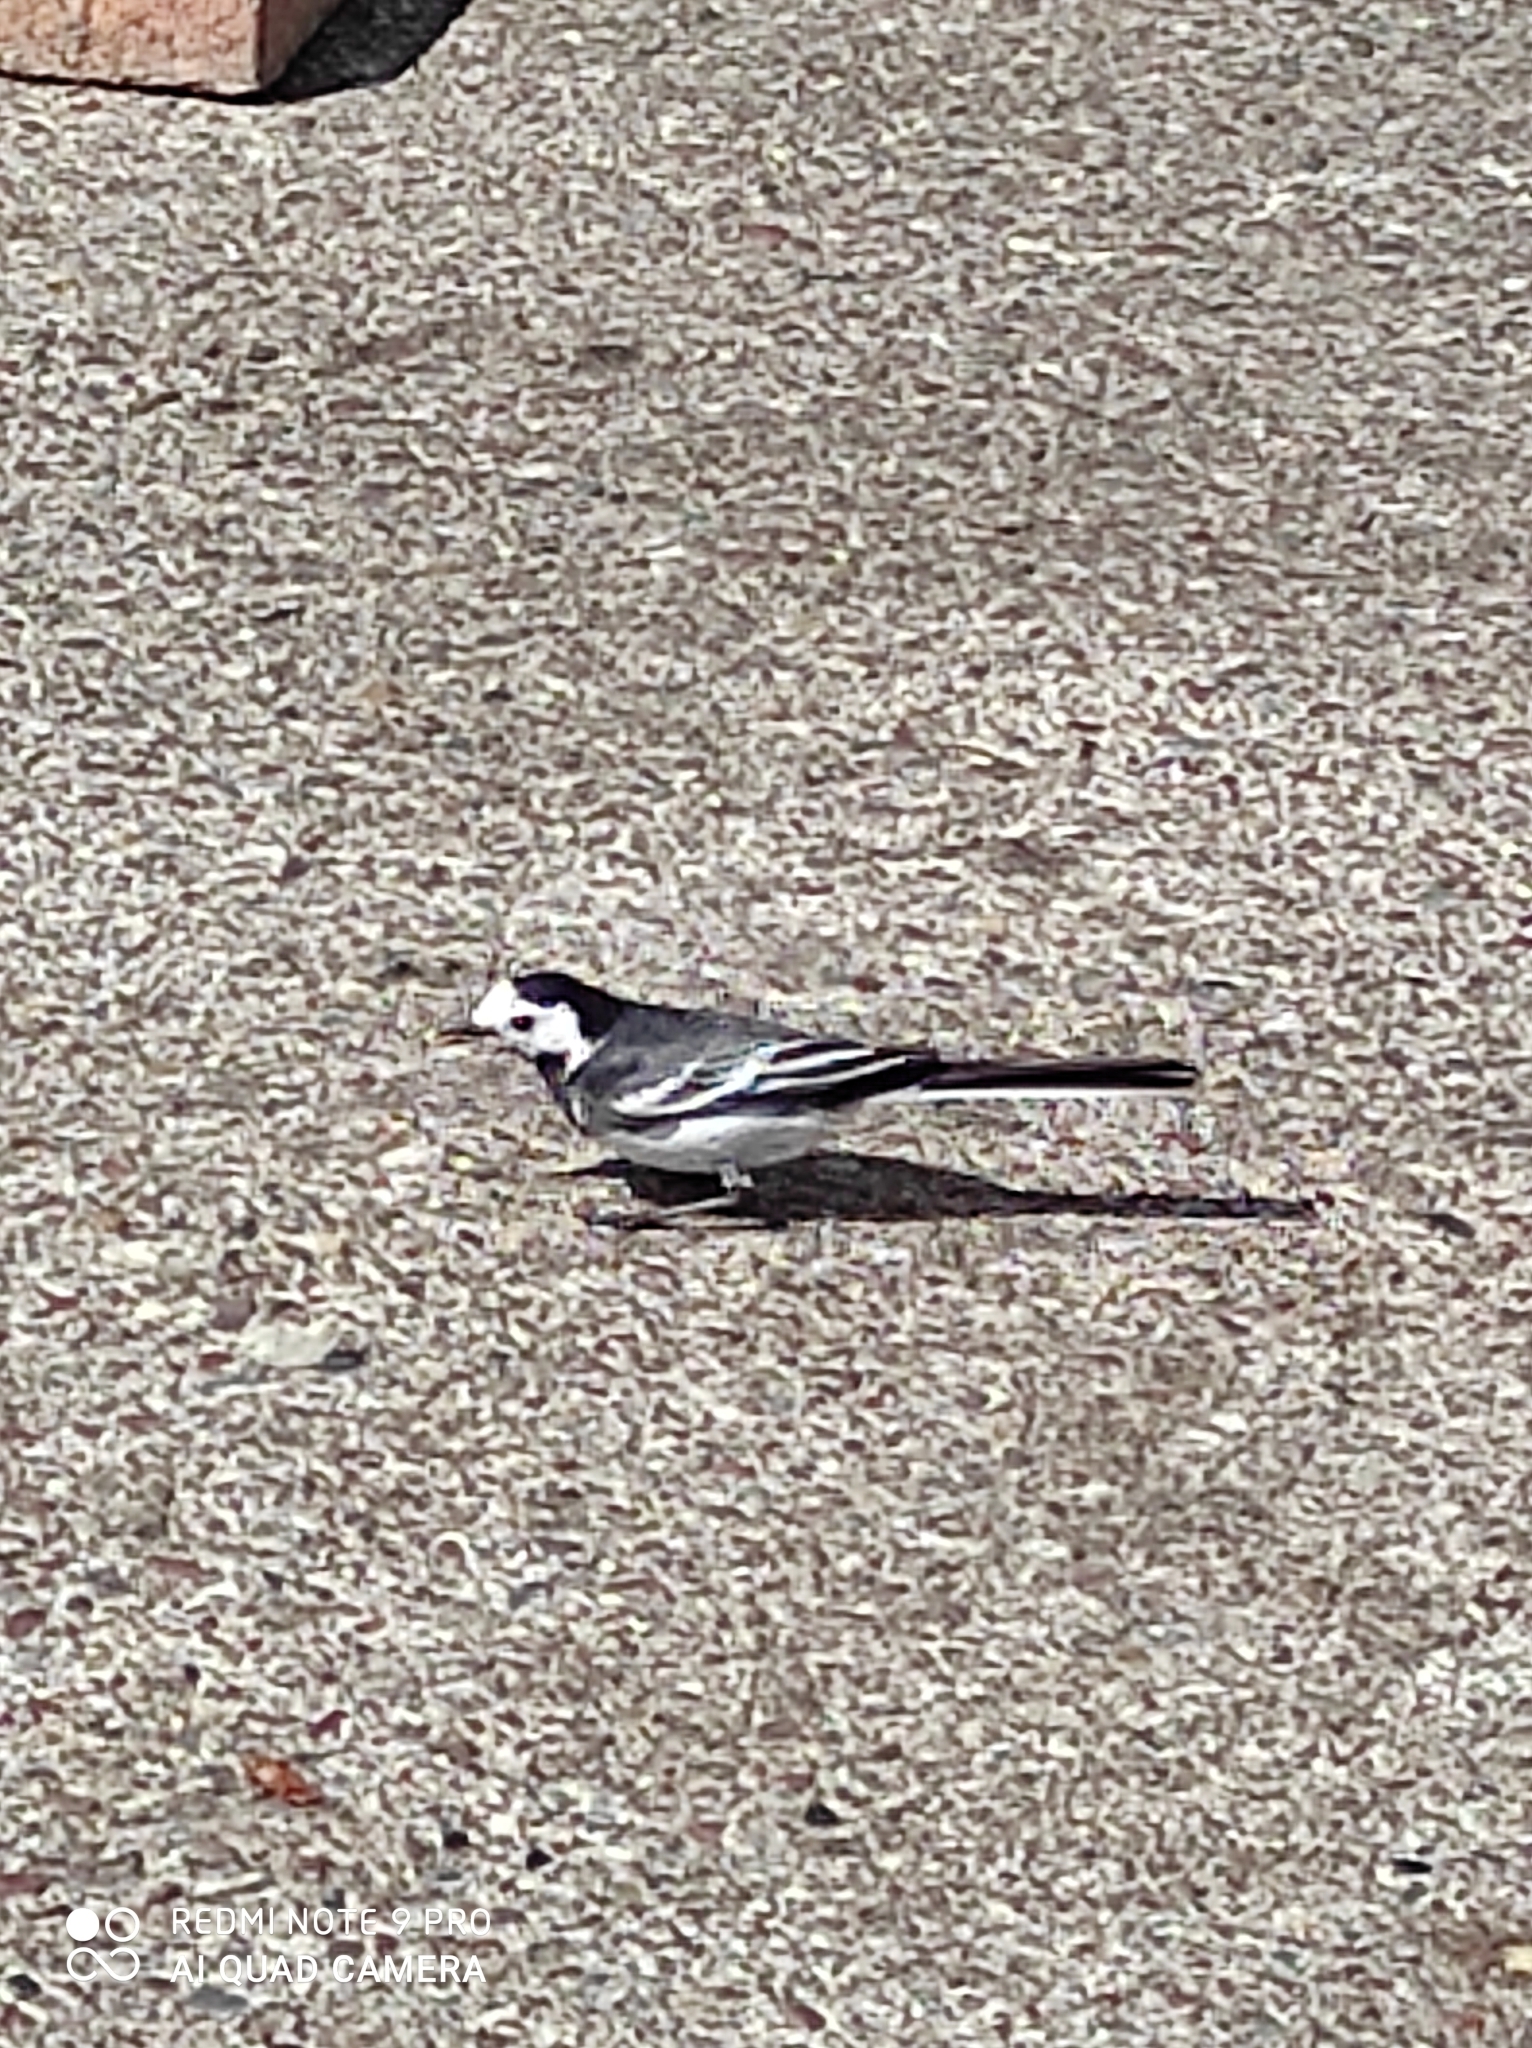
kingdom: Animalia
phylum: Chordata
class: Aves
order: Passeriformes
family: Motacillidae
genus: Motacilla
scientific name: Motacilla alba
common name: White wagtail
